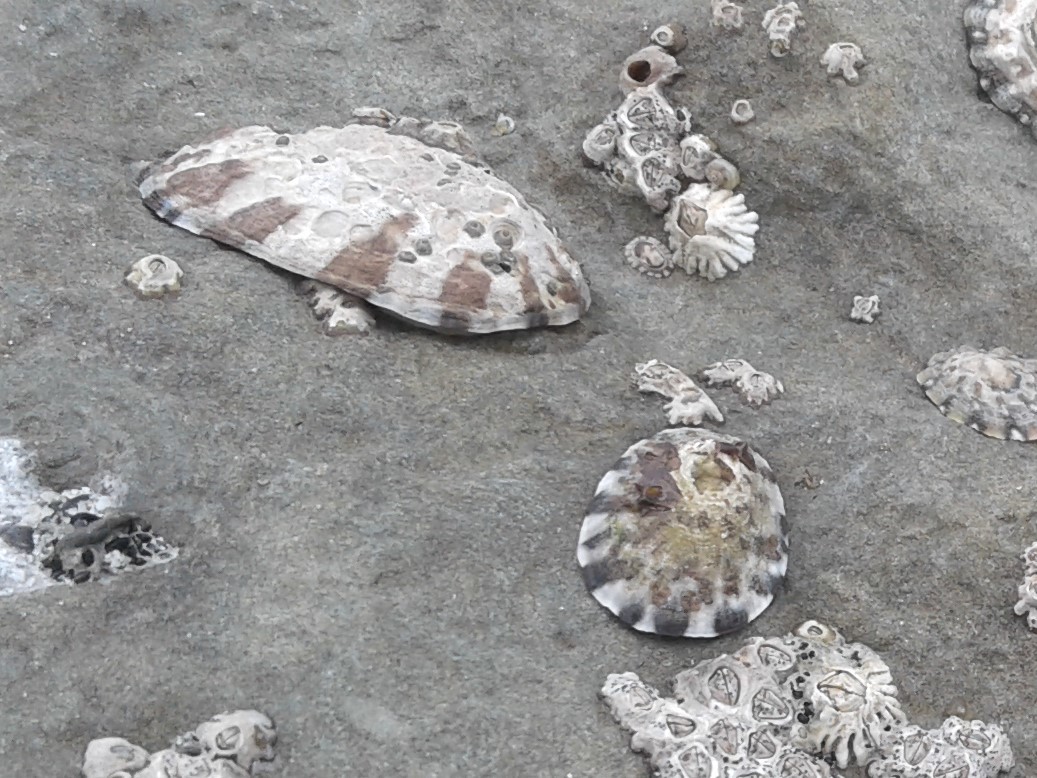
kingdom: Animalia
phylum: Mollusca
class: Gastropoda
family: Nacellidae
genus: Cellana
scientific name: Cellana radians
